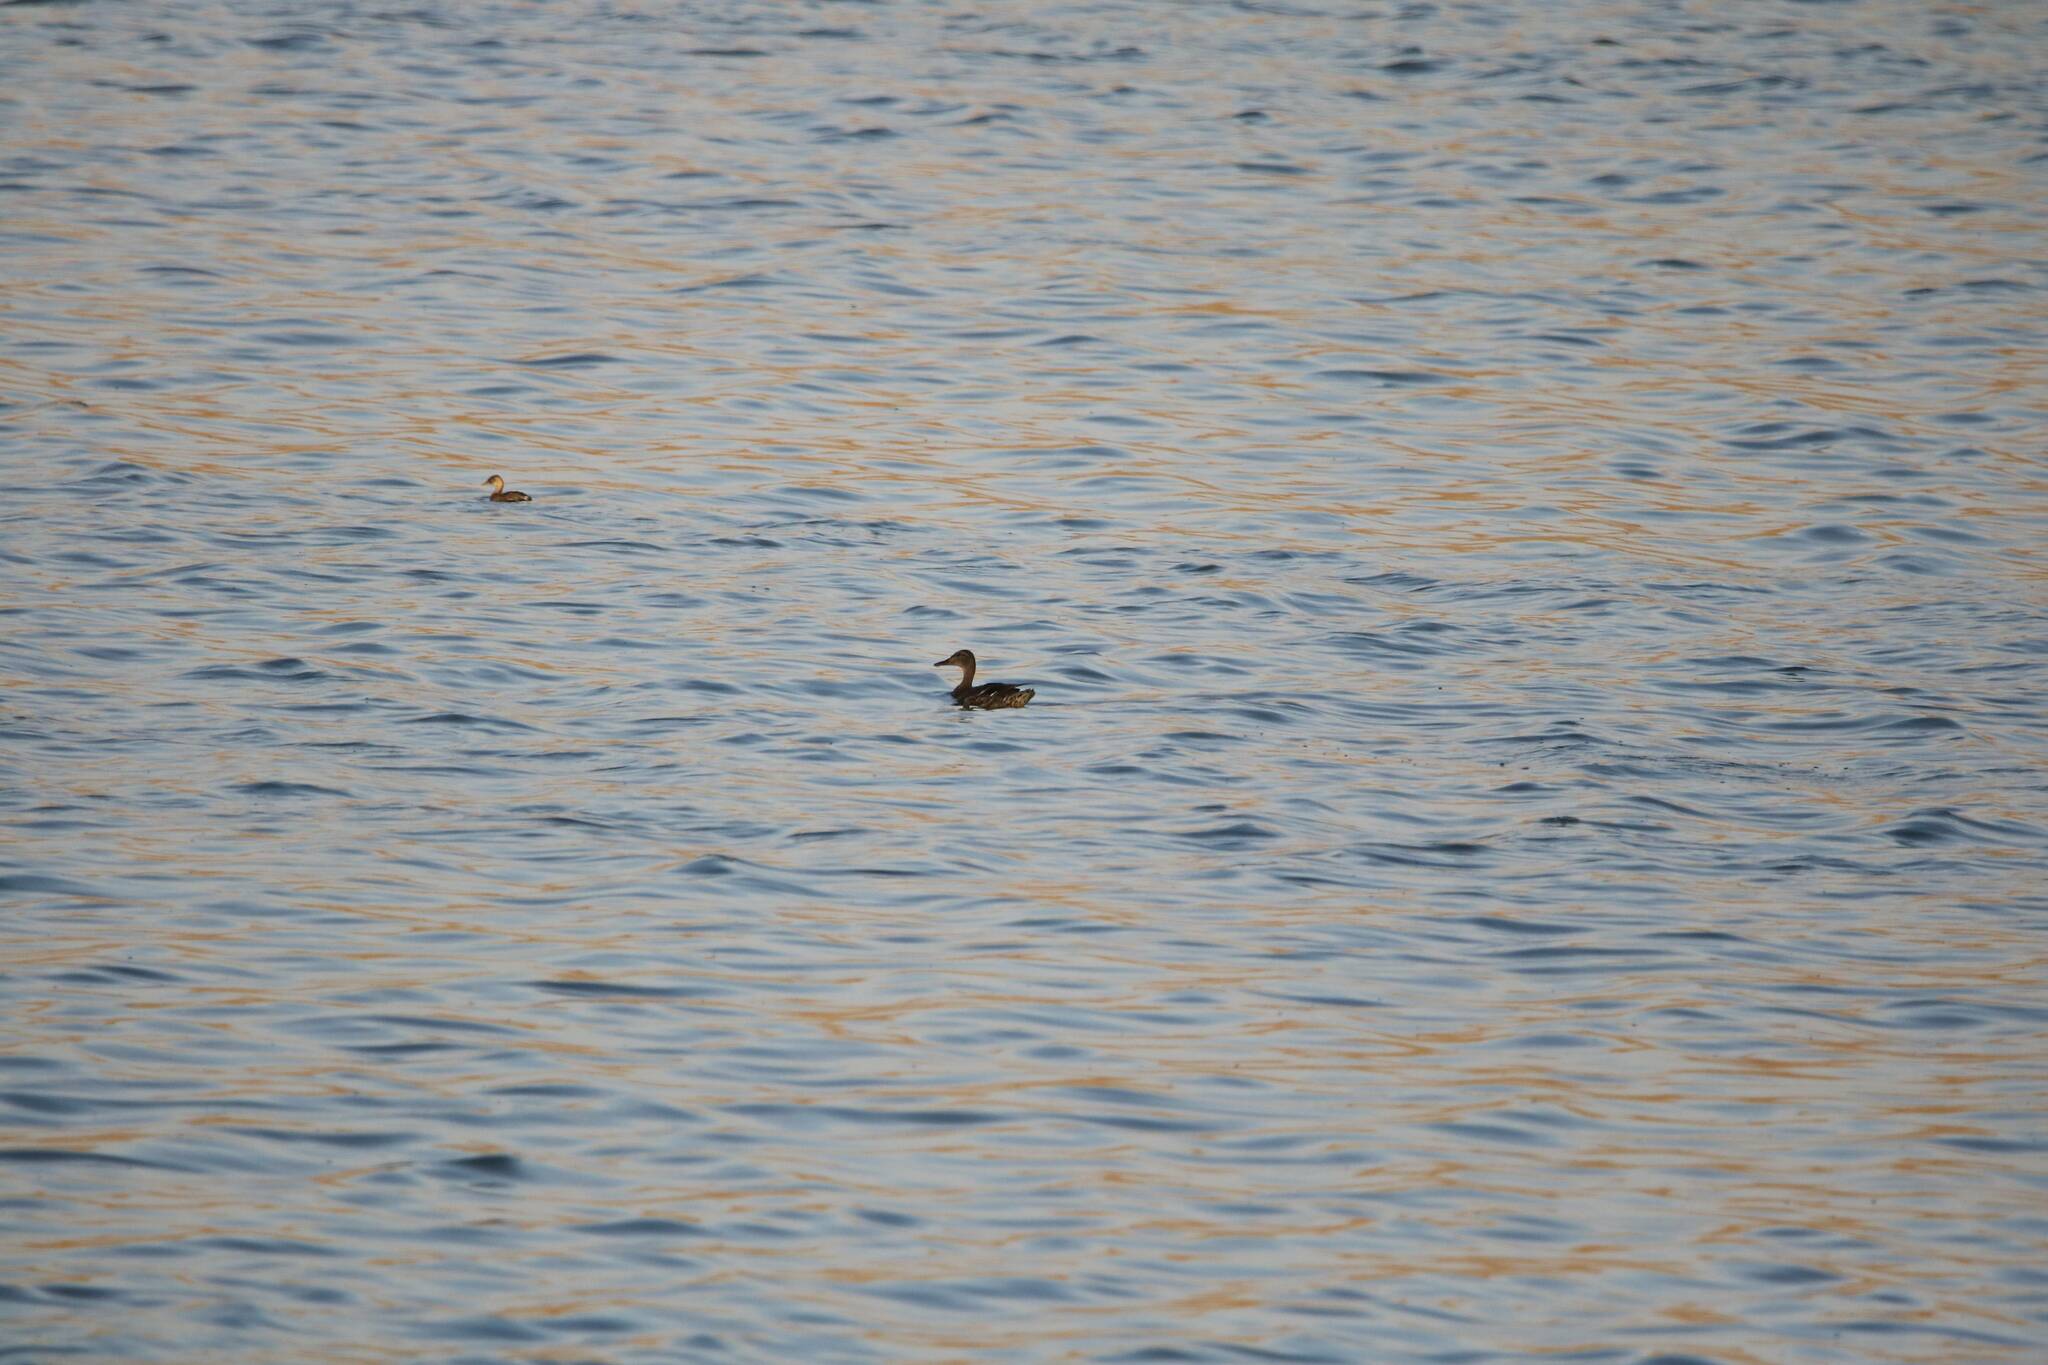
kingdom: Animalia
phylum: Chordata
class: Aves
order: Podicipediformes
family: Podicipedidae
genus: Tachybaptus
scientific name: Tachybaptus ruficollis
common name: Little grebe
